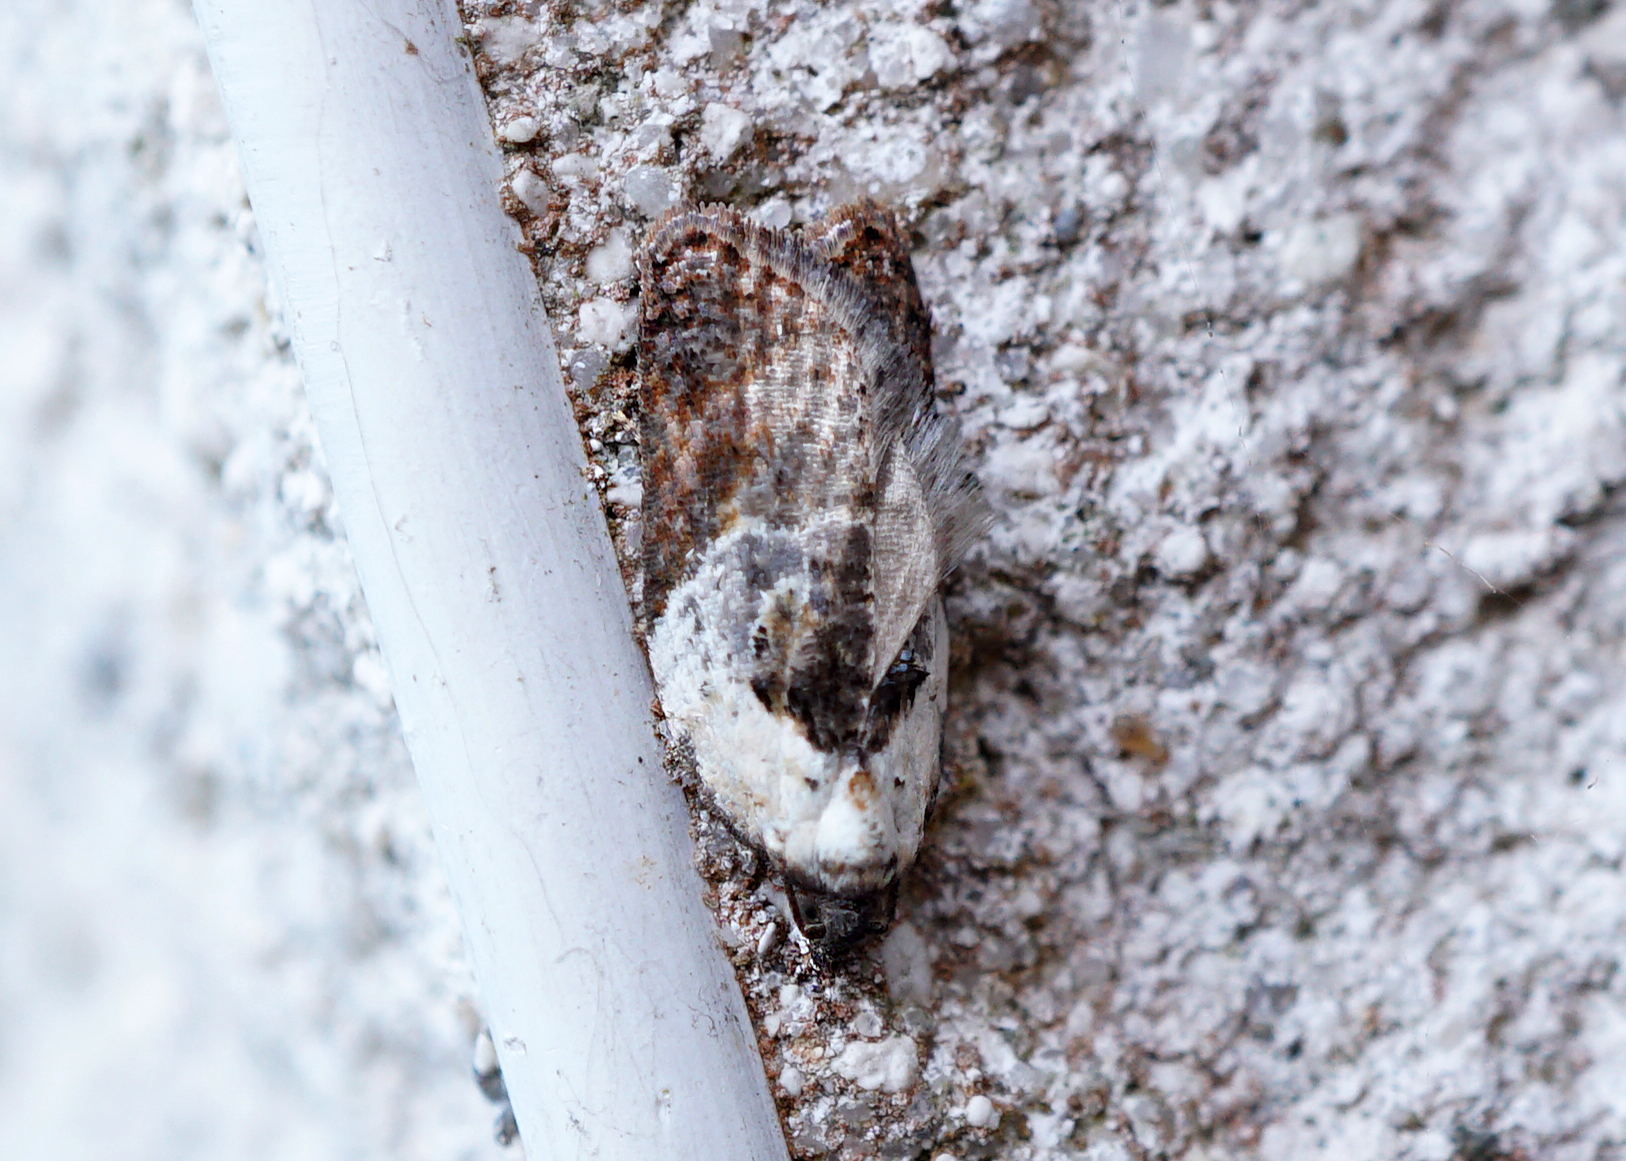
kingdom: Animalia
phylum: Arthropoda
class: Insecta
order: Lepidoptera
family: Tortricidae
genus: Acleris
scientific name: Acleris variegana
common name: Garden rose tortrix
